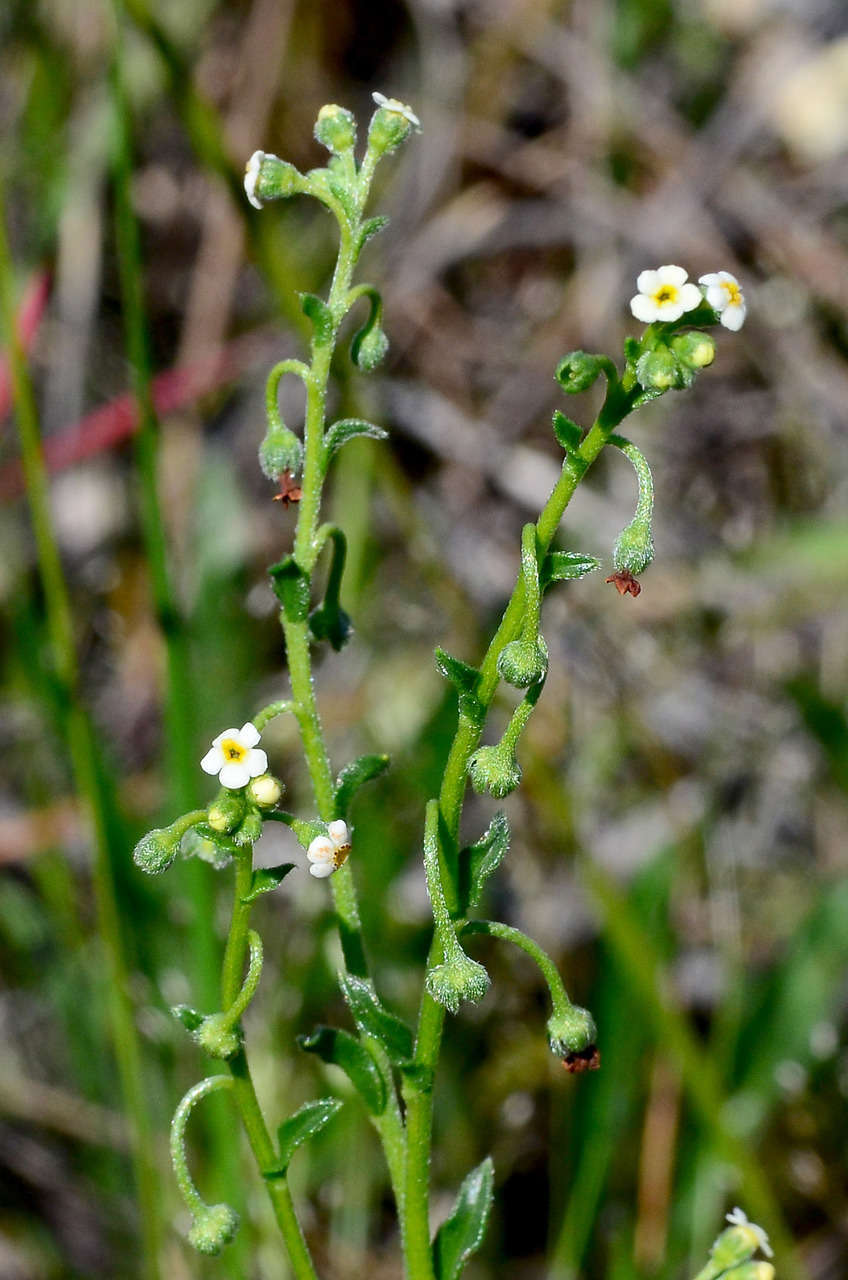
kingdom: Plantae
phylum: Tracheophyta
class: Magnoliopsida
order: Boraginales
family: Boraginaceae
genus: Hackelia
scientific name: Hackelia suaveolens
